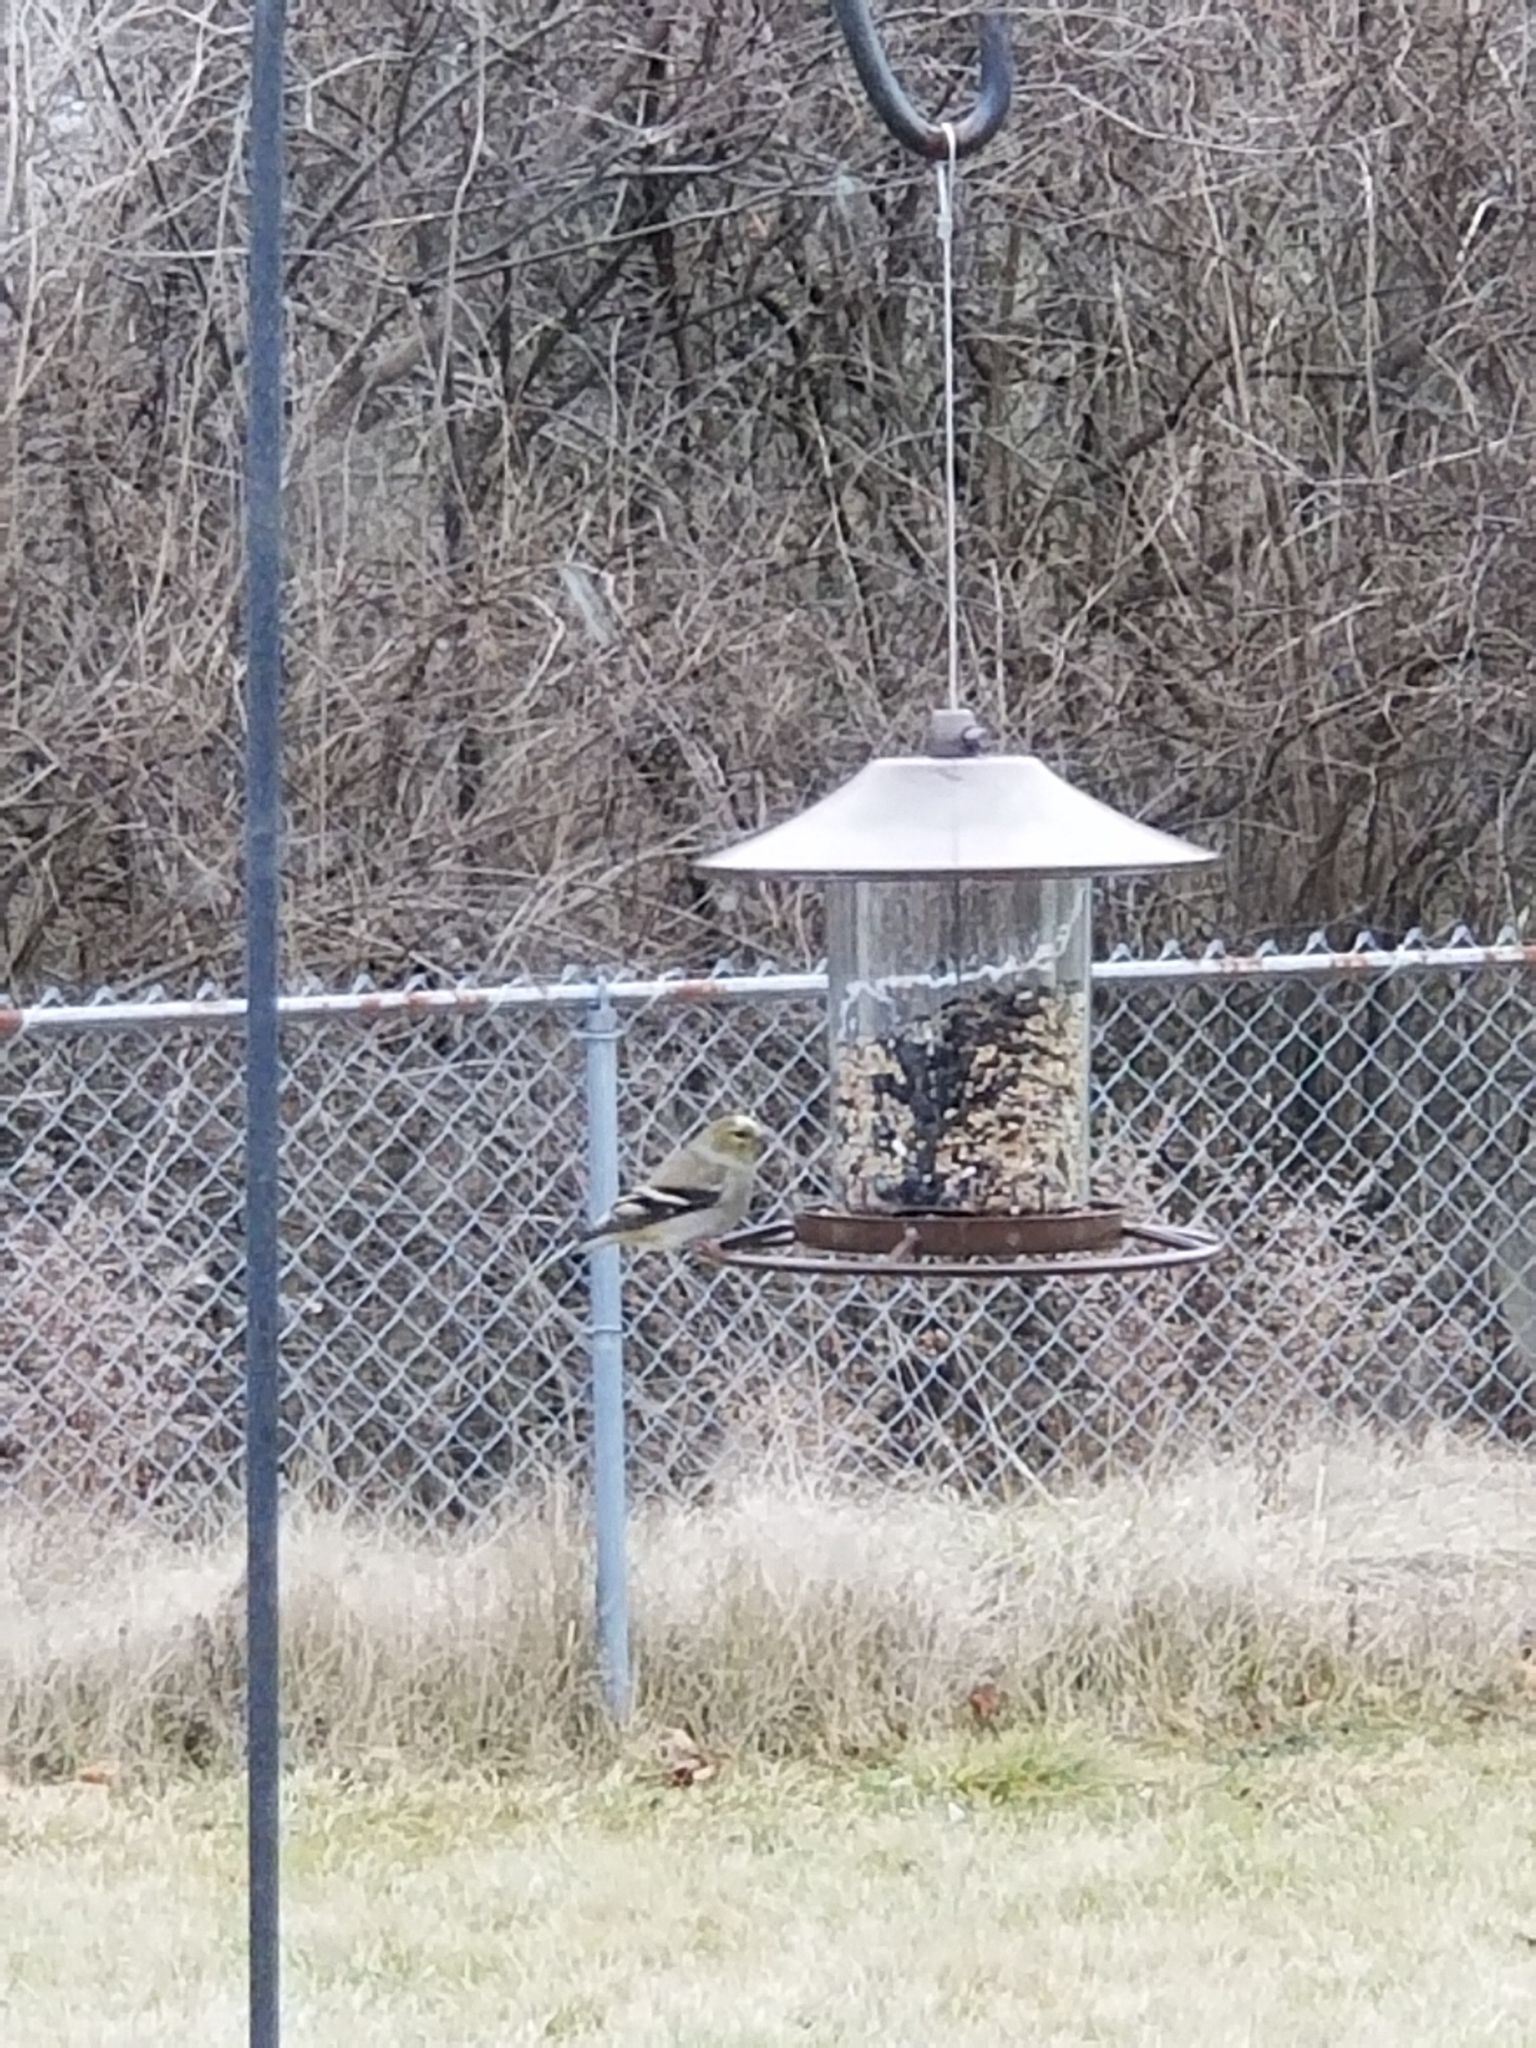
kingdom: Animalia
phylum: Chordata
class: Aves
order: Passeriformes
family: Fringillidae
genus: Spinus
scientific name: Spinus tristis
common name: American goldfinch
